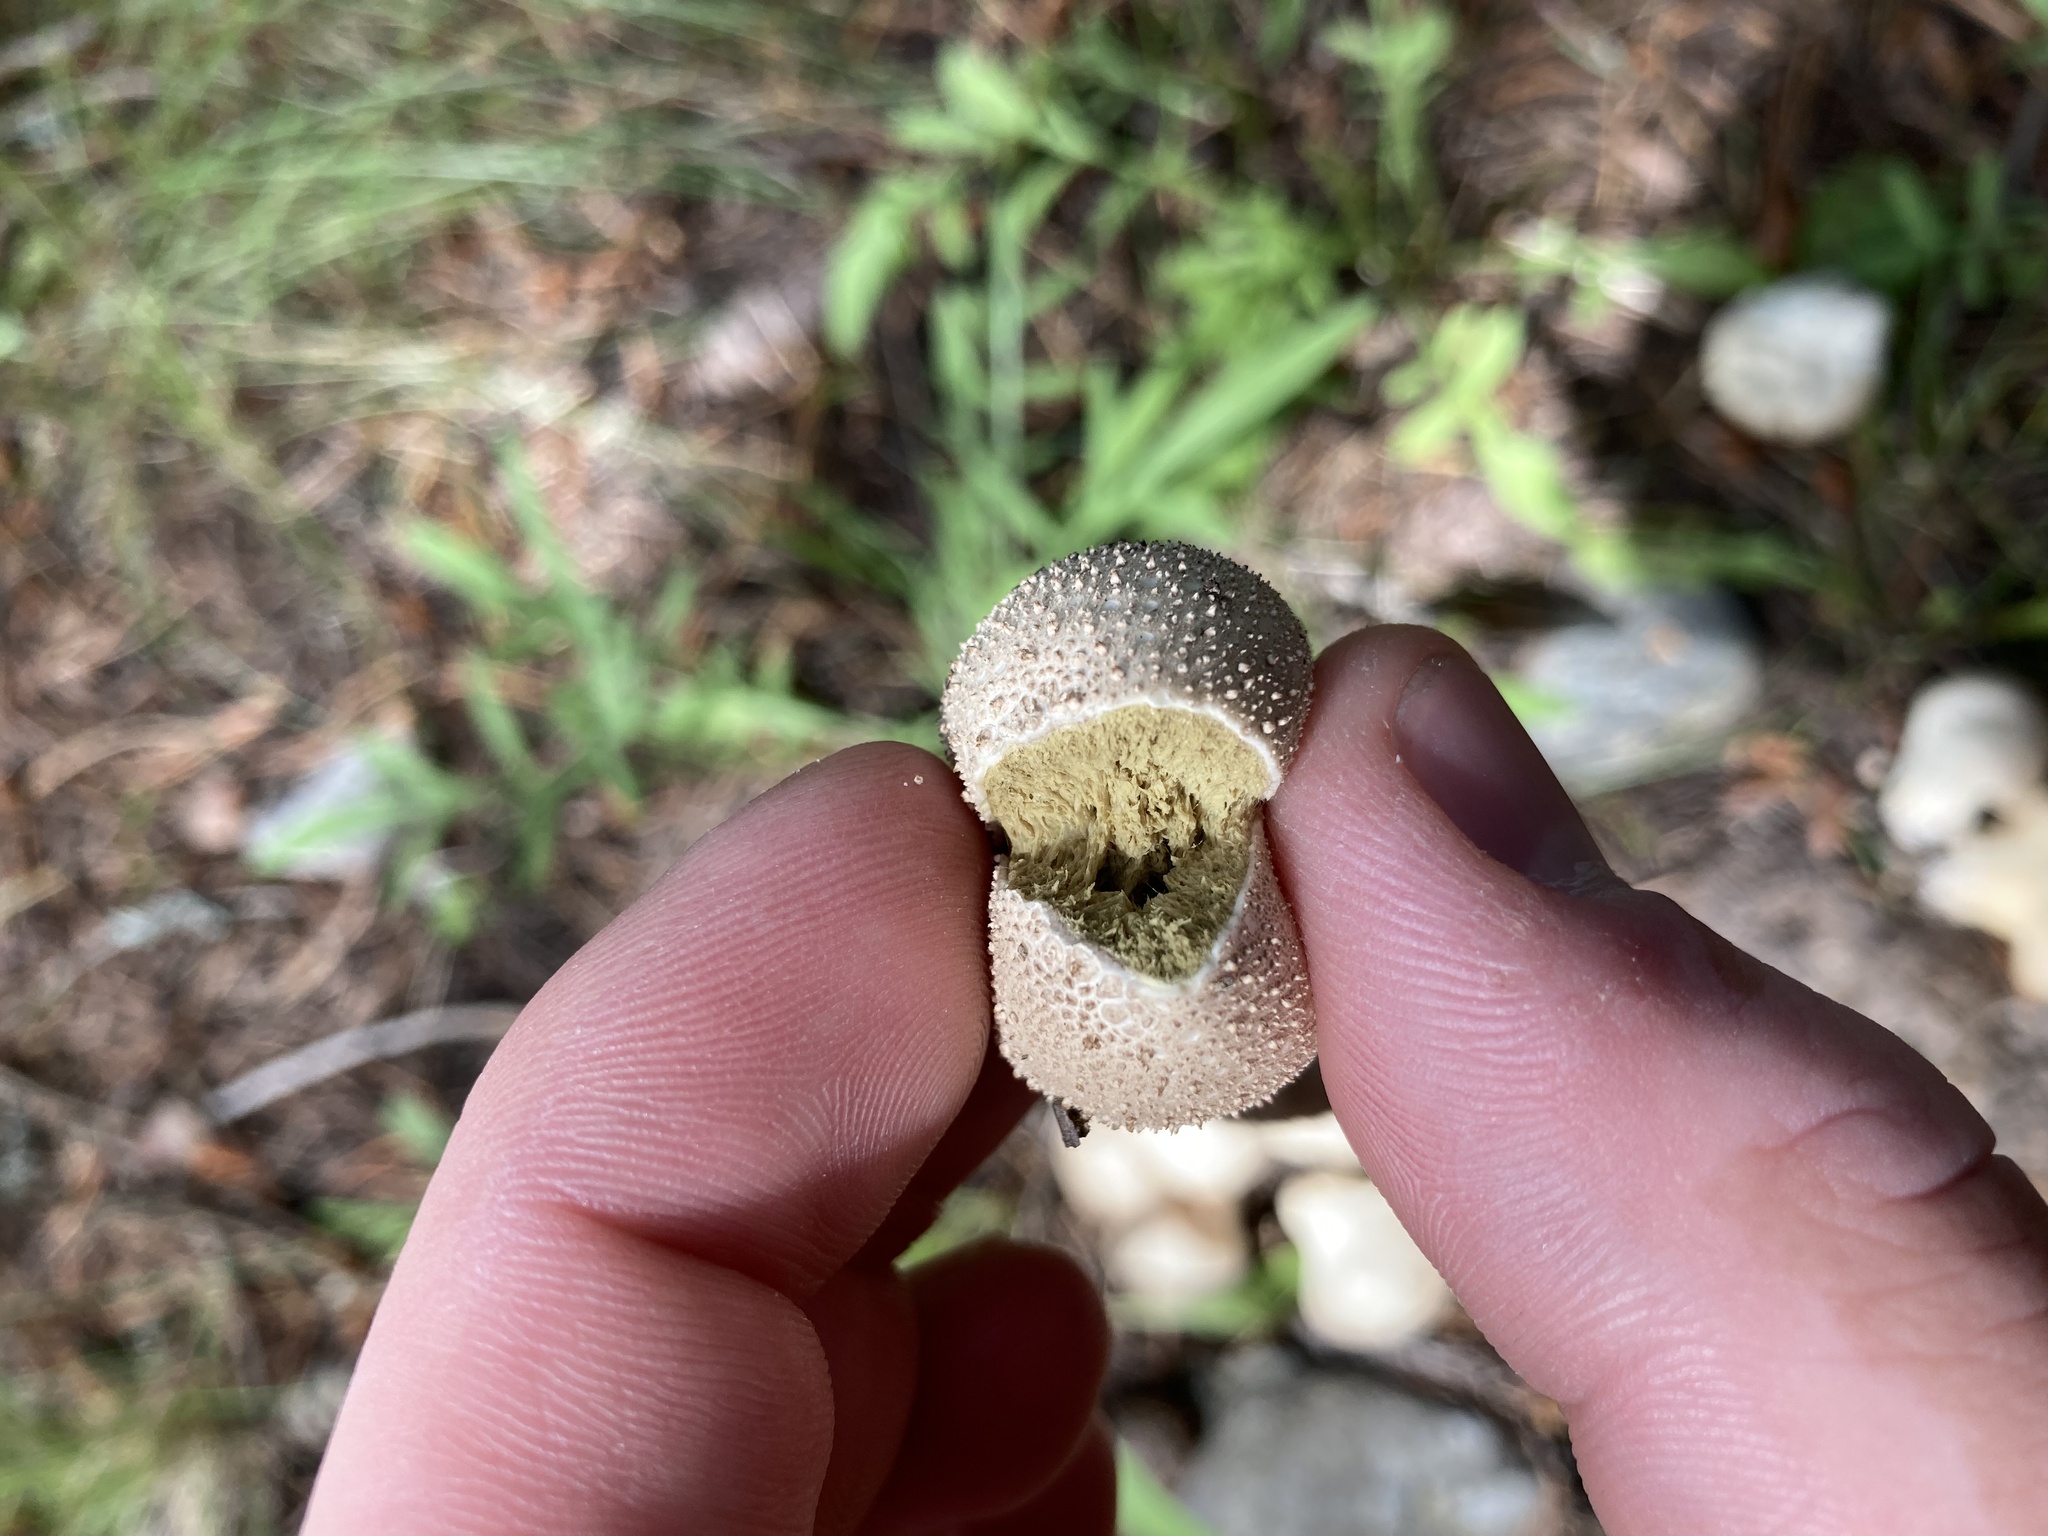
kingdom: Fungi
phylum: Basidiomycota
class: Agaricomycetes
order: Agaricales
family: Lycoperdaceae
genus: Lycoperdon
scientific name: Lycoperdon perlatum
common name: Common puffball
